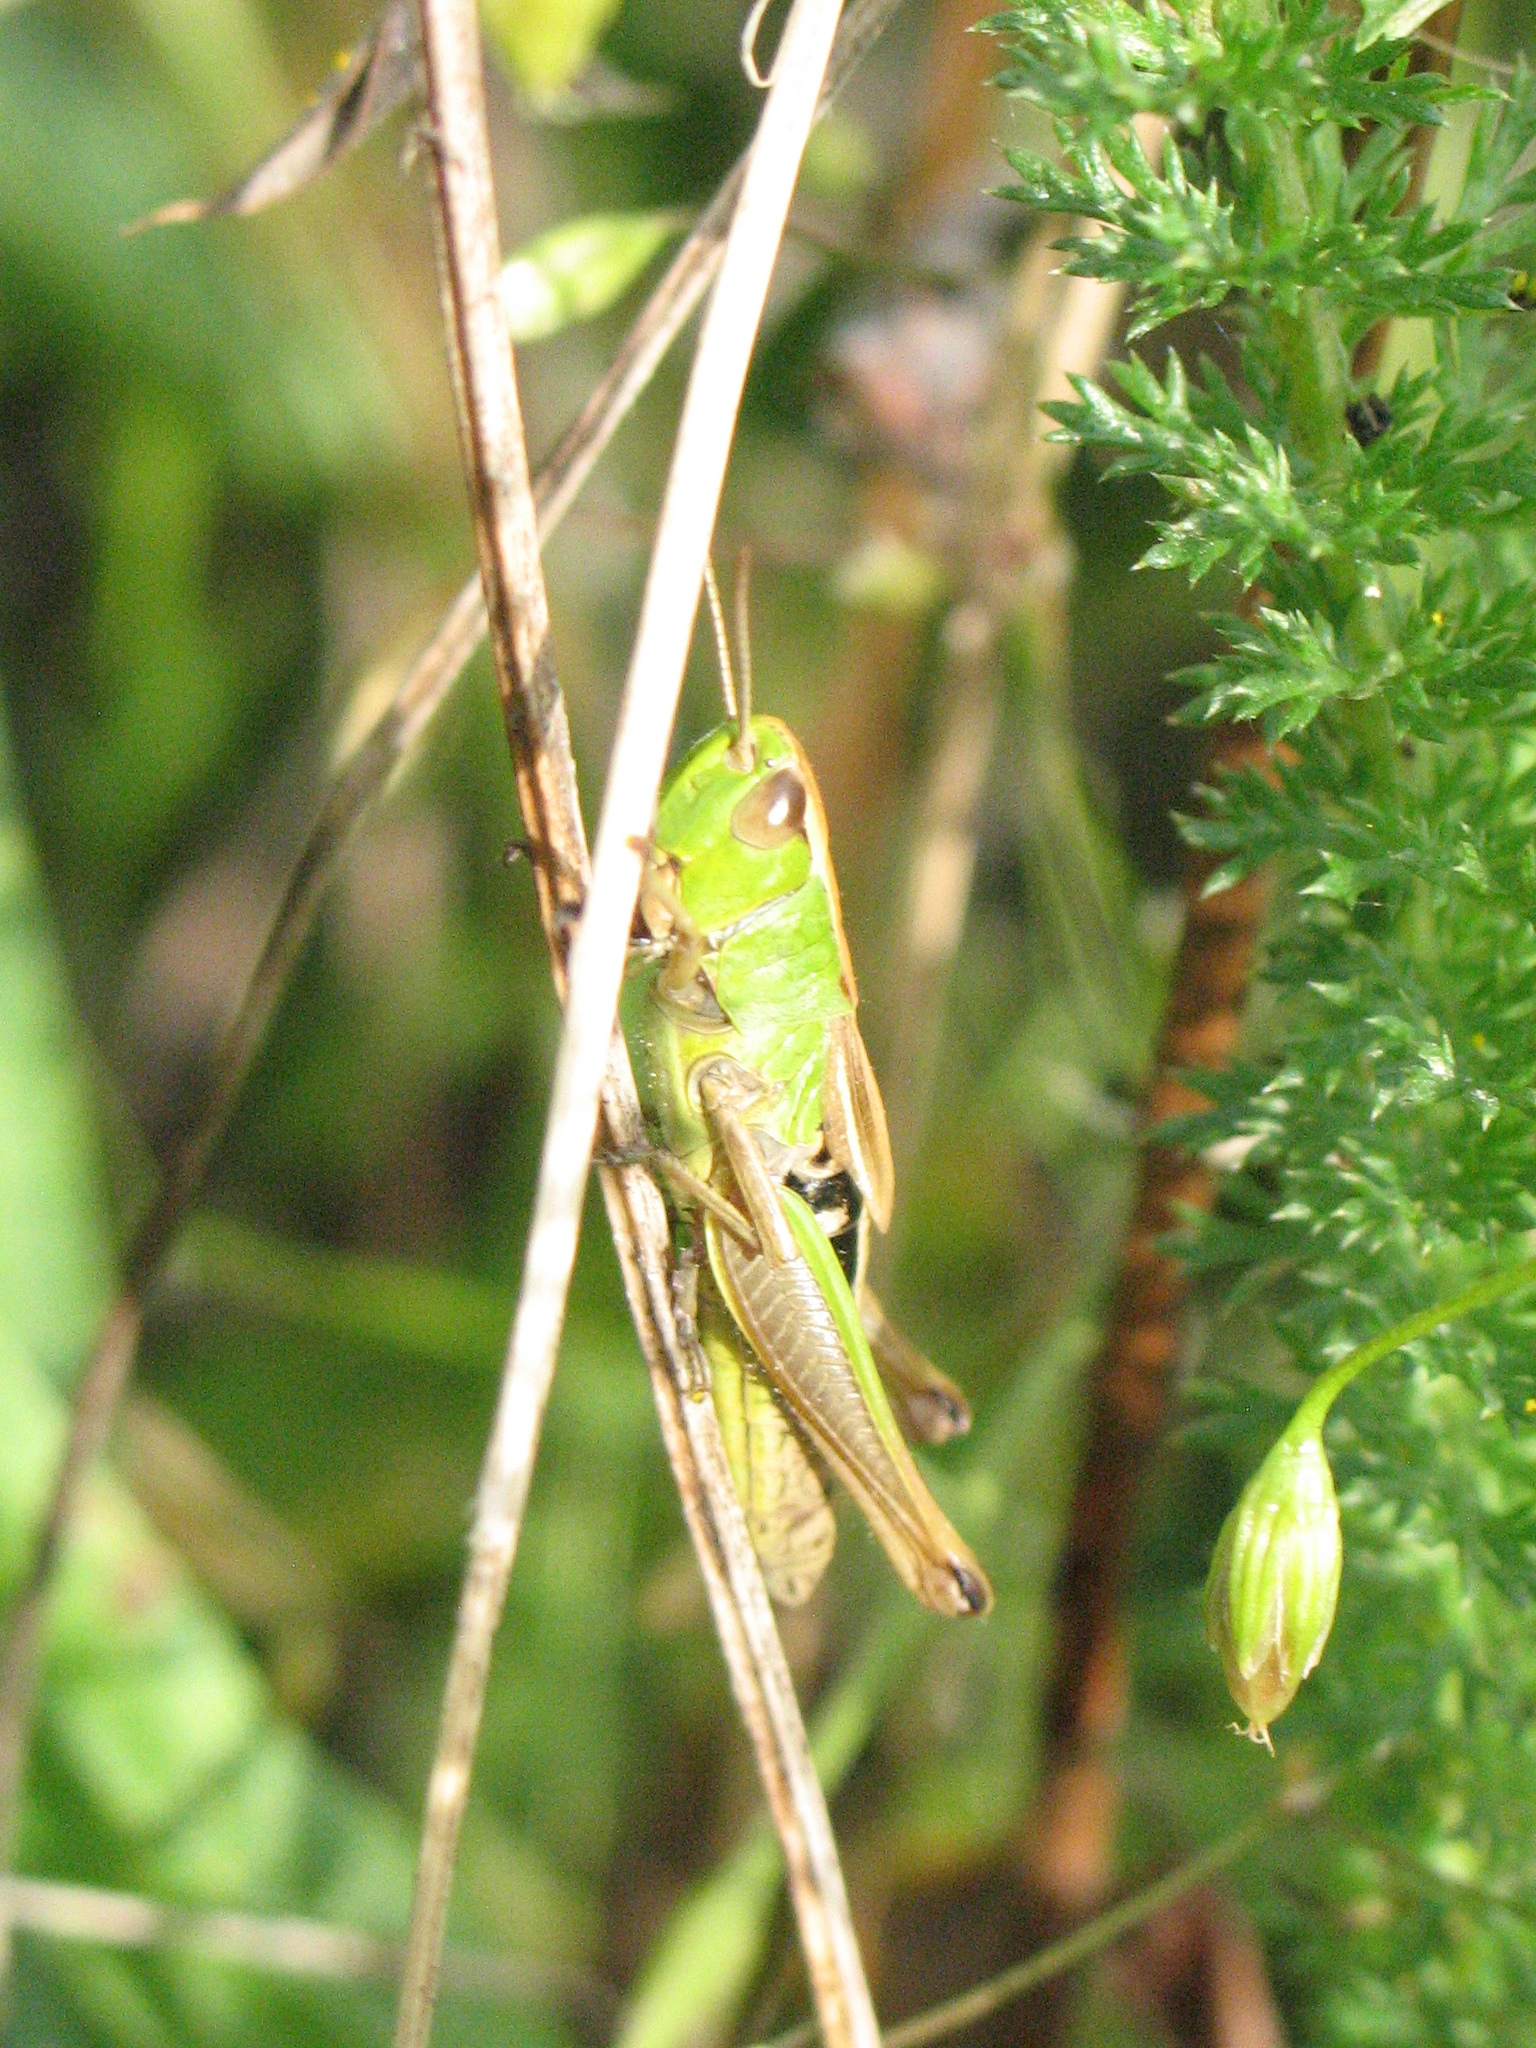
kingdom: Animalia
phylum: Arthropoda
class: Insecta
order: Orthoptera
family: Acrididae
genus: Pseudochorthippus
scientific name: Pseudochorthippus parallelus
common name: Meadow grasshopper
